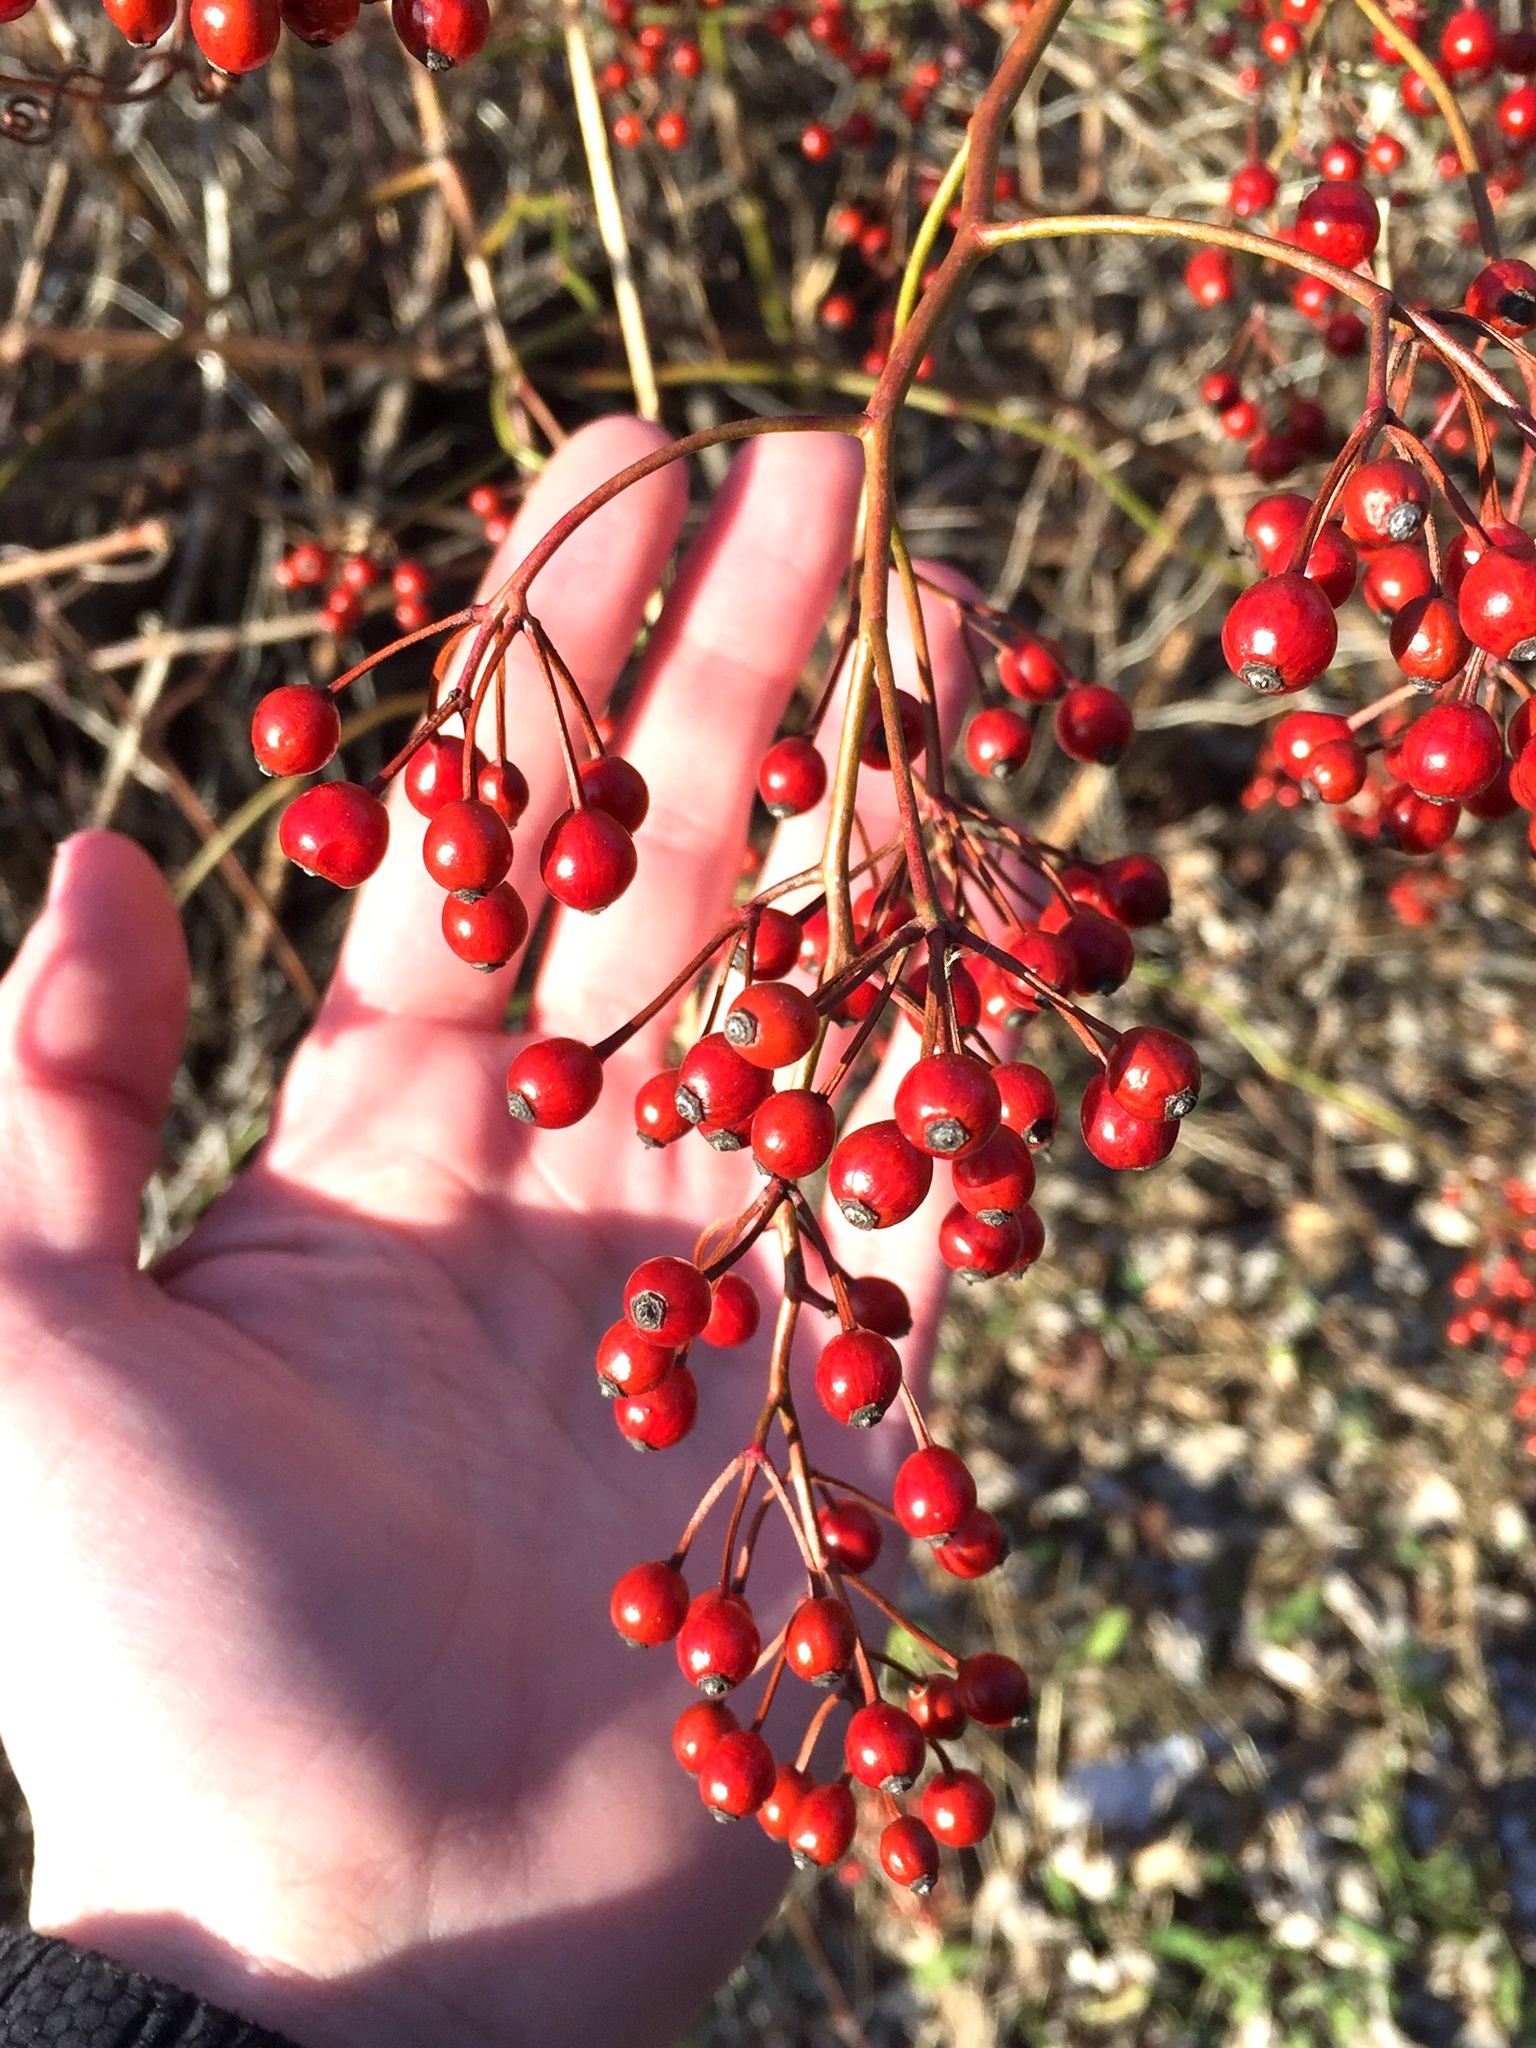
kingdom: Plantae
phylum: Tracheophyta
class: Magnoliopsida
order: Rosales
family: Rosaceae
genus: Rosa
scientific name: Rosa multiflora
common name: Multiflora rose
